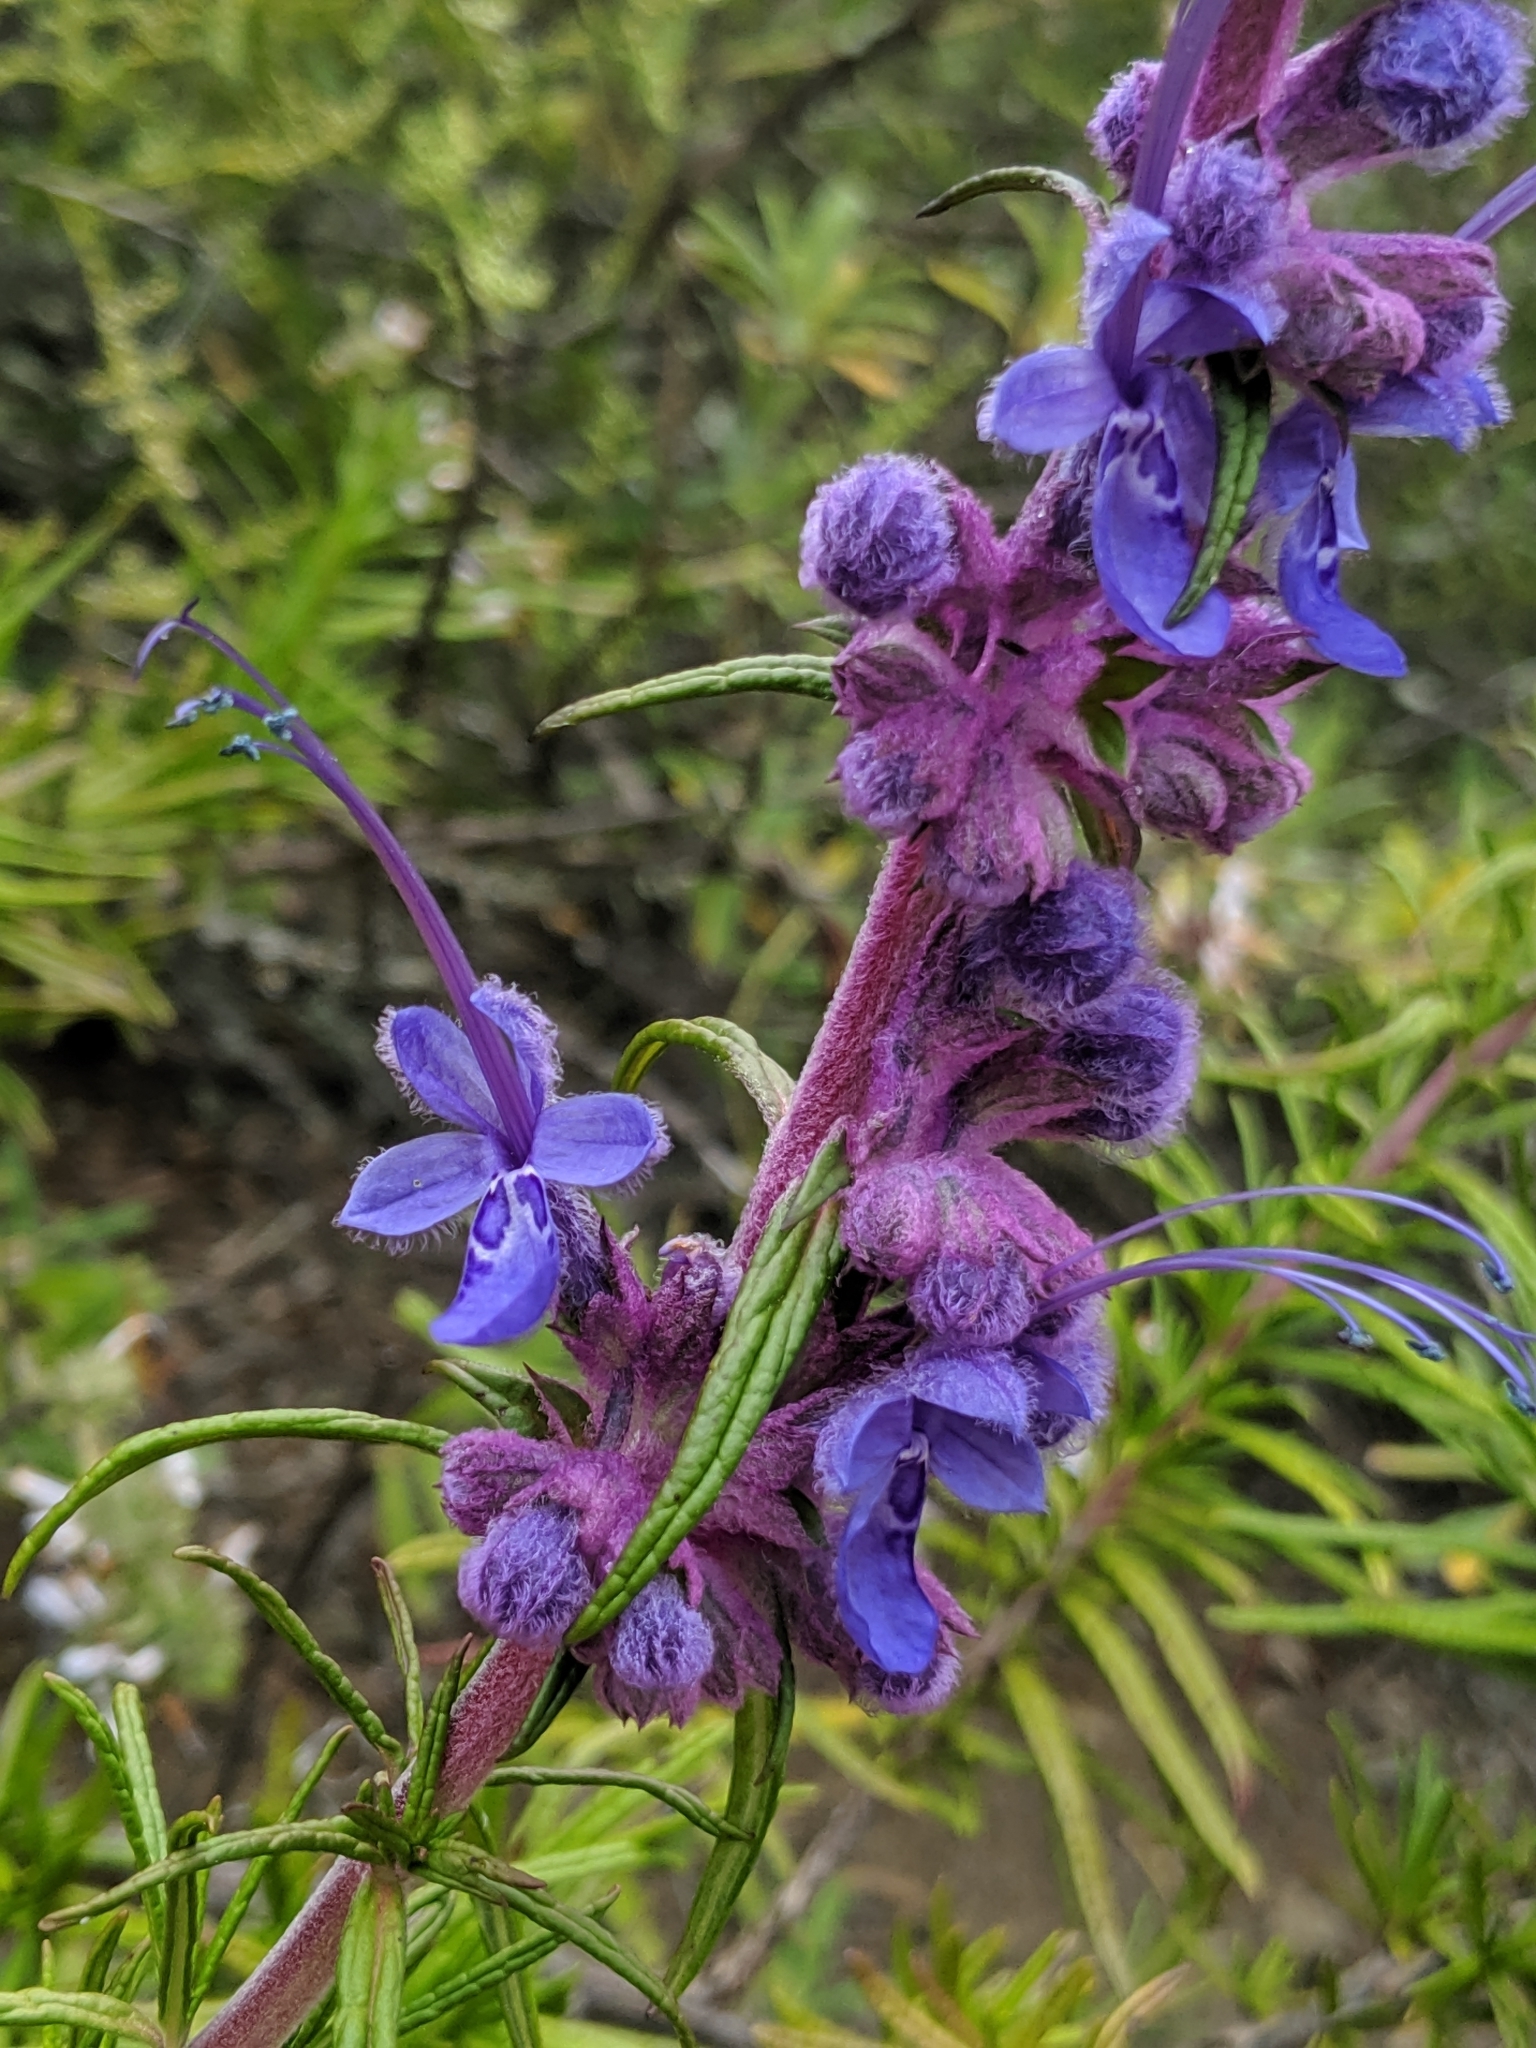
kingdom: Plantae
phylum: Tracheophyta
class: Magnoliopsida
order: Lamiales
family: Lamiaceae
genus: Trichostema
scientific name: Trichostema lanatum
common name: Woolly bluecurls
